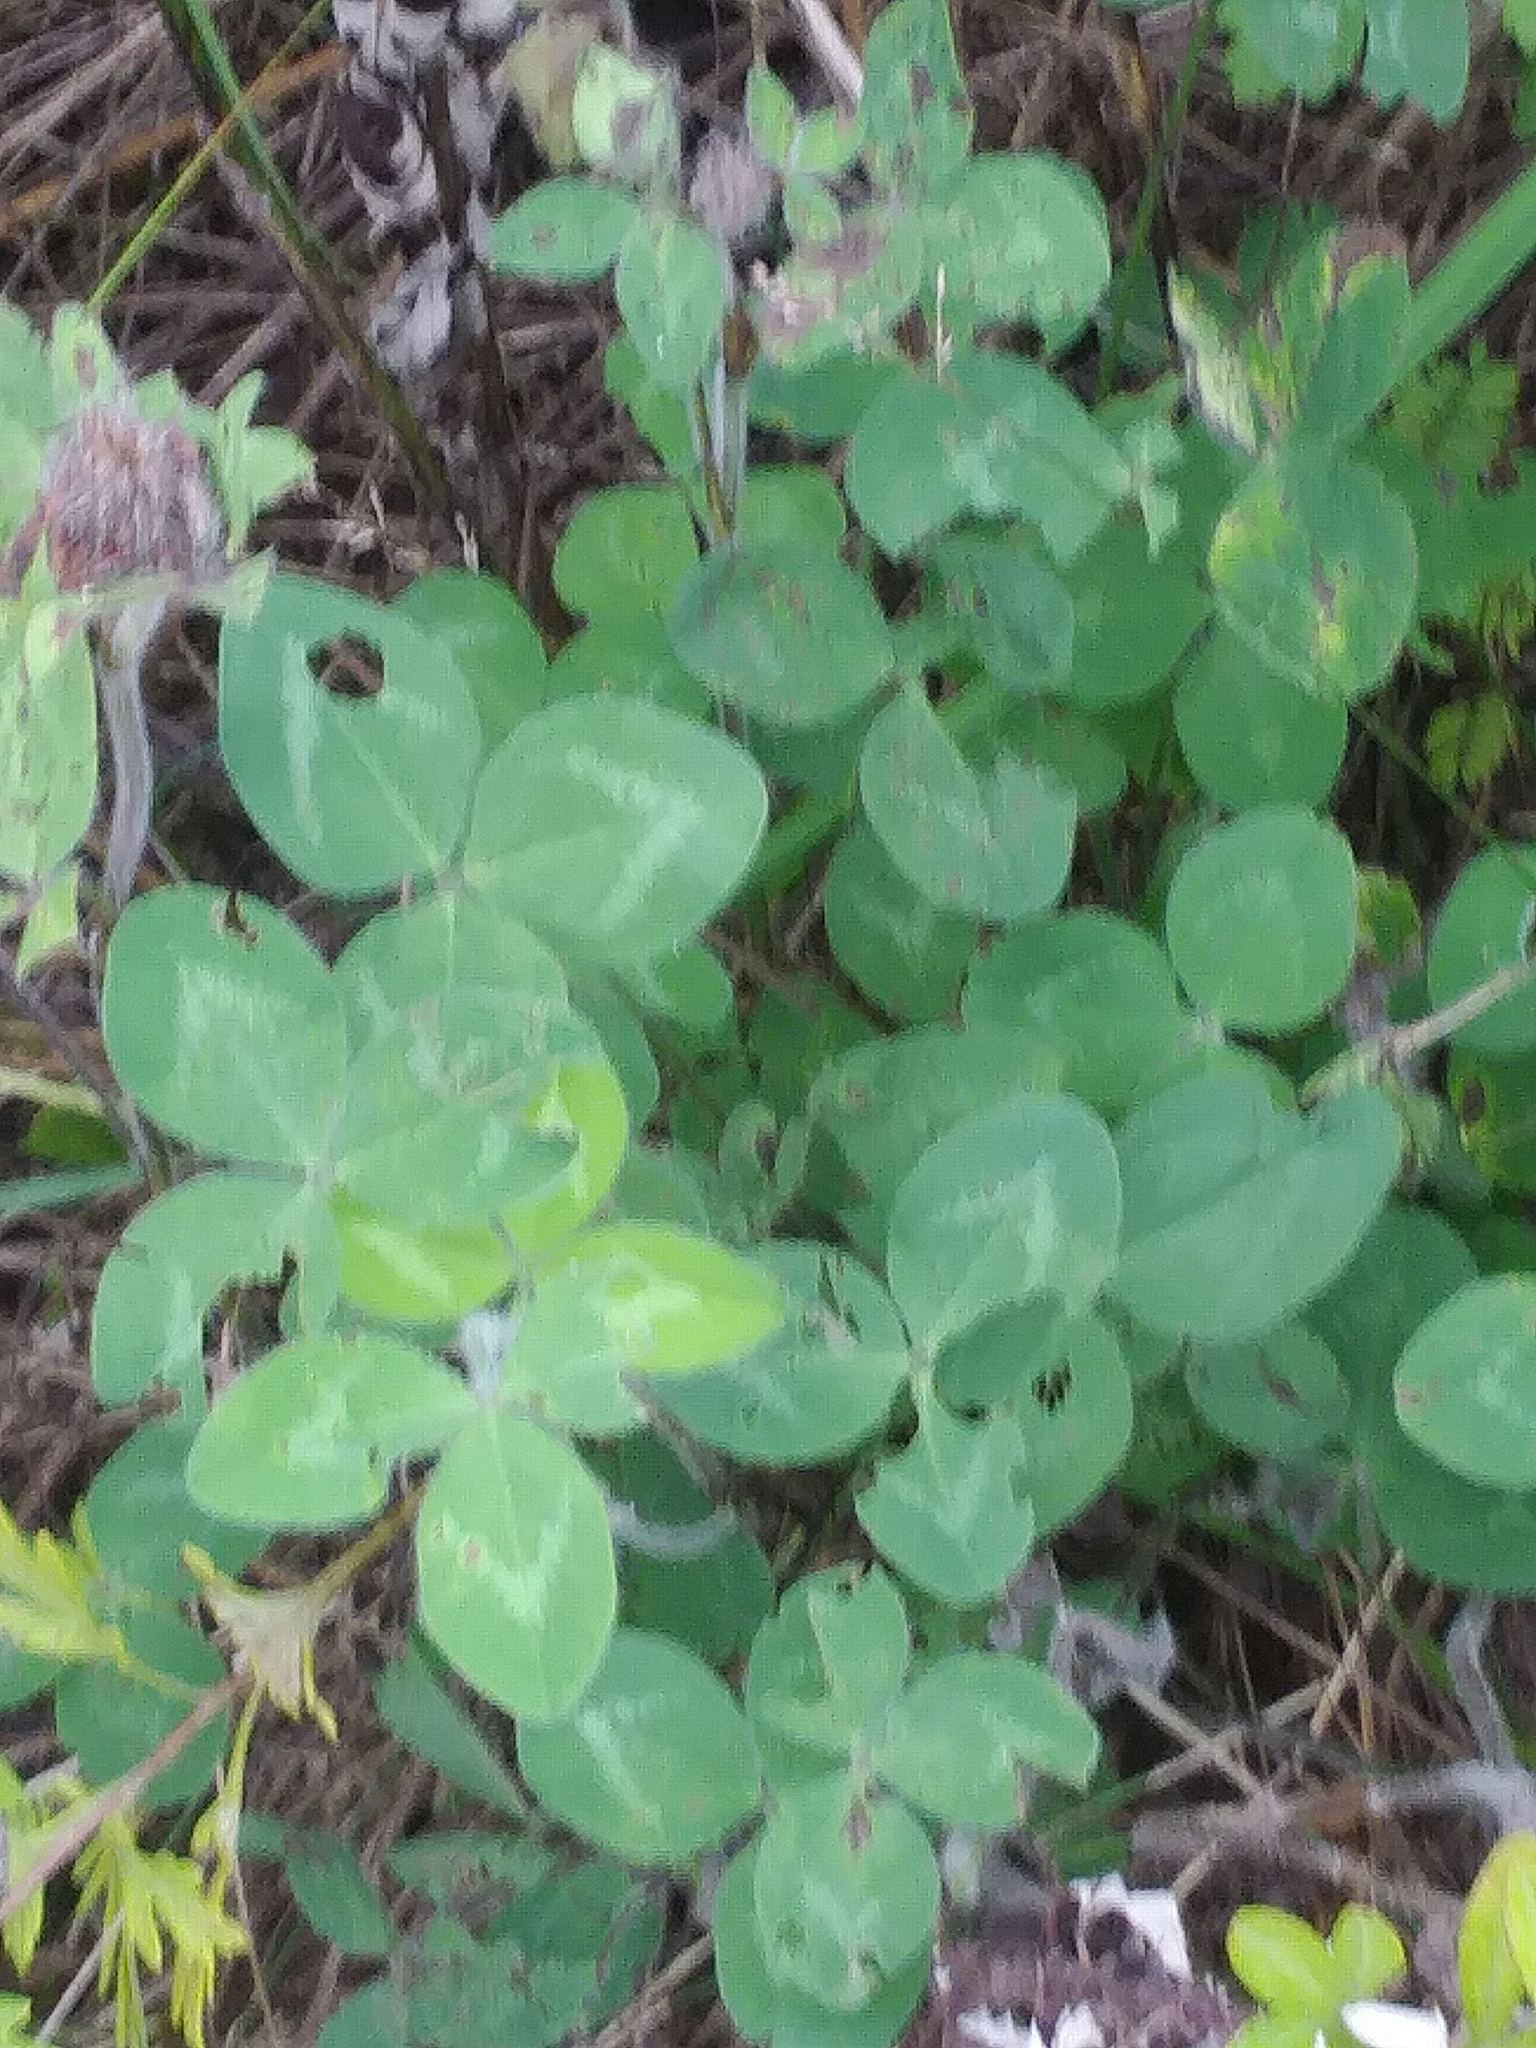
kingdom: Plantae
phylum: Tracheophyta
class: Magnoliopsida
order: Fabales
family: Fabaceae
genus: Trifolium
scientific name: Trifolium pratense
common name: Red clover
